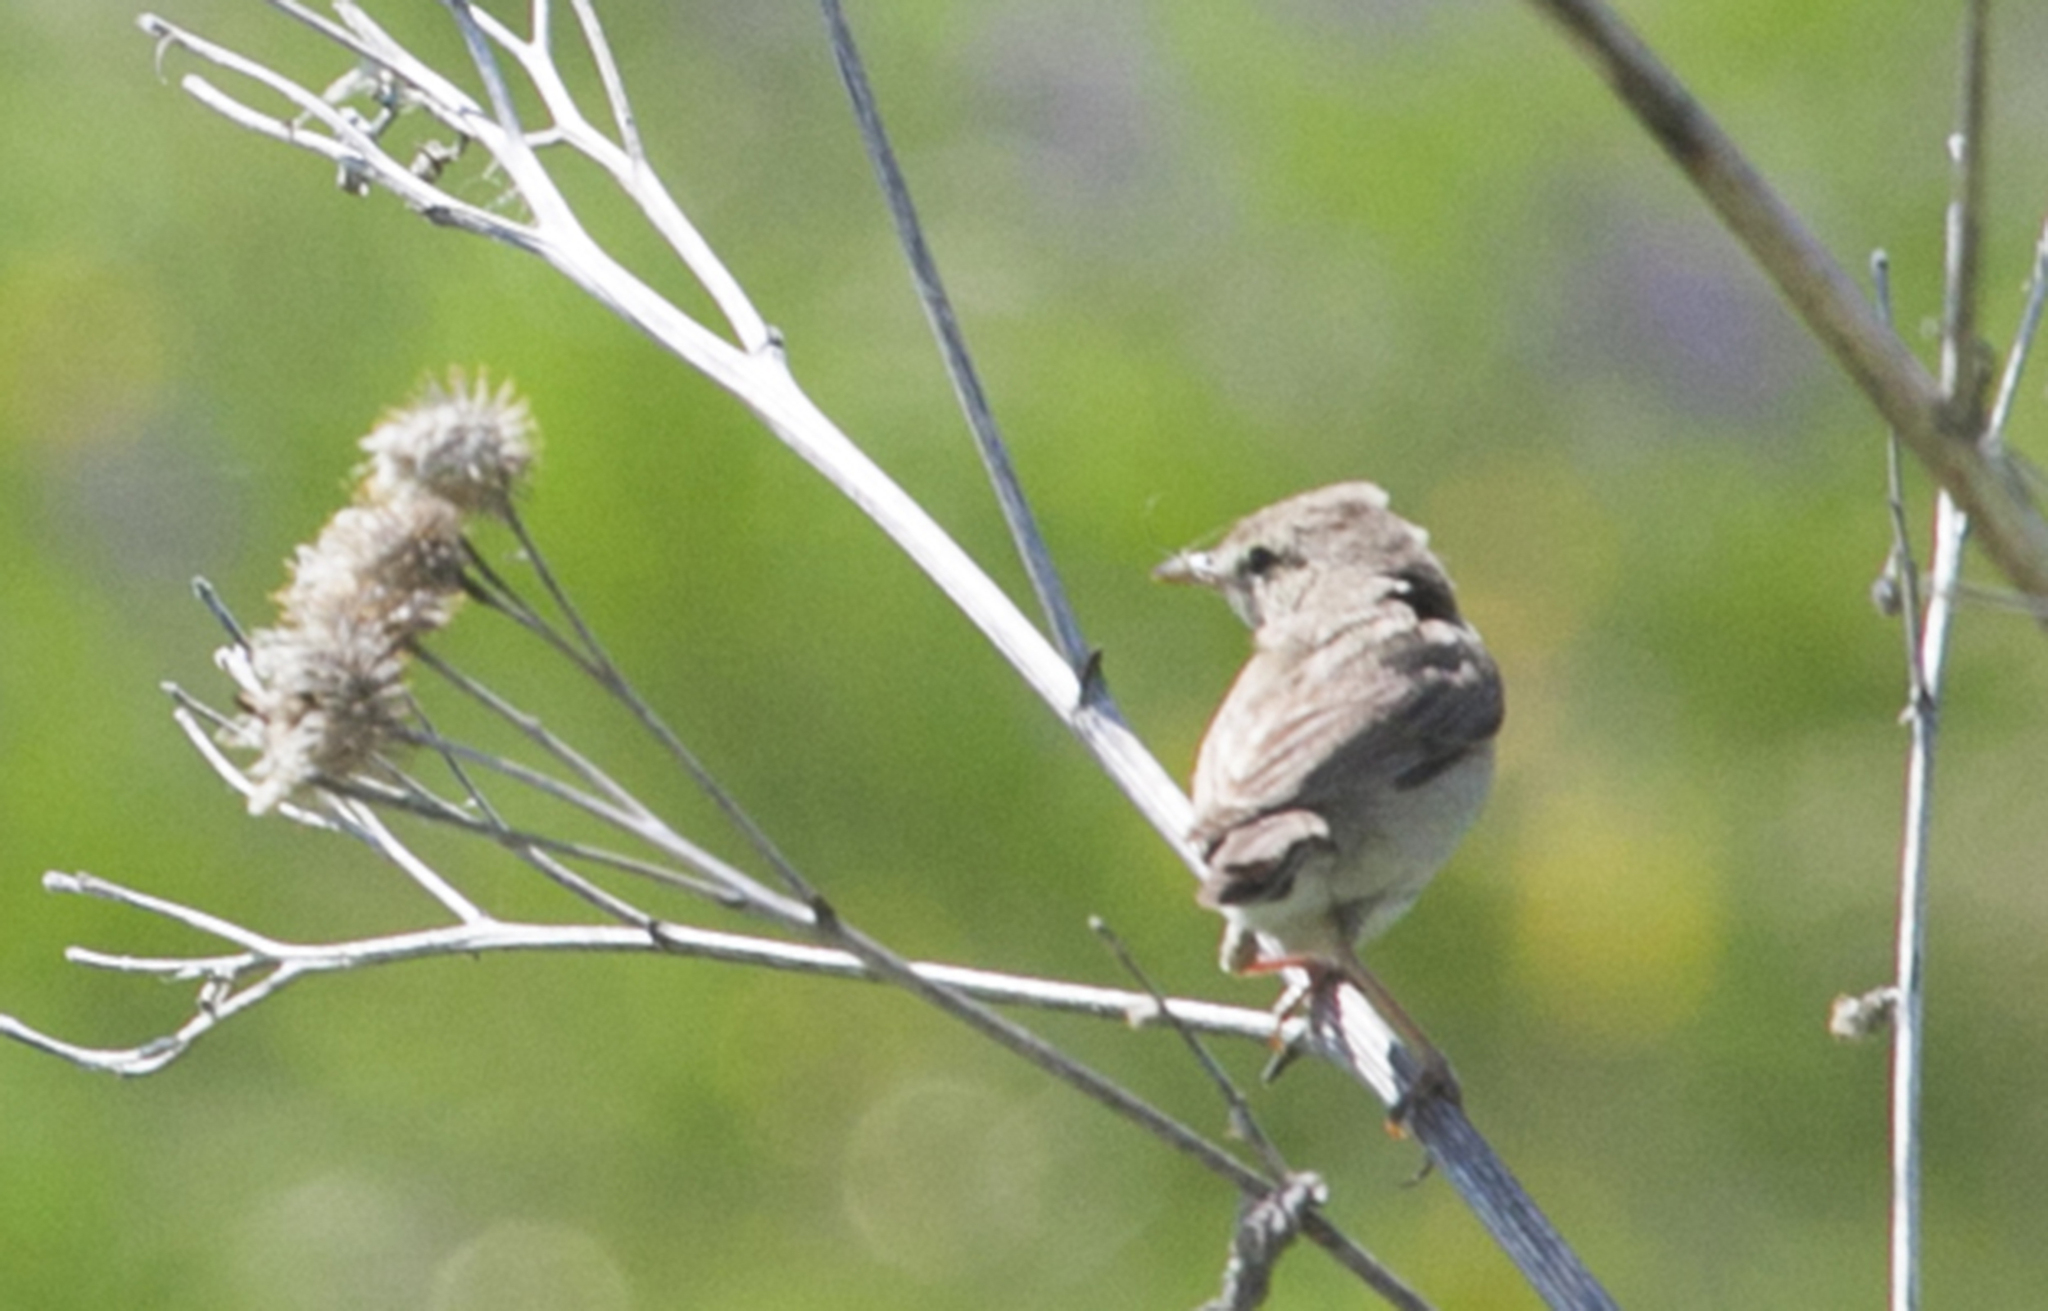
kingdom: Animalia
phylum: Chordata
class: Aves
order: Passeriformes
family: Acrocephalidae
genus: Iduna
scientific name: Iduna caligata
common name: Booted warbler
